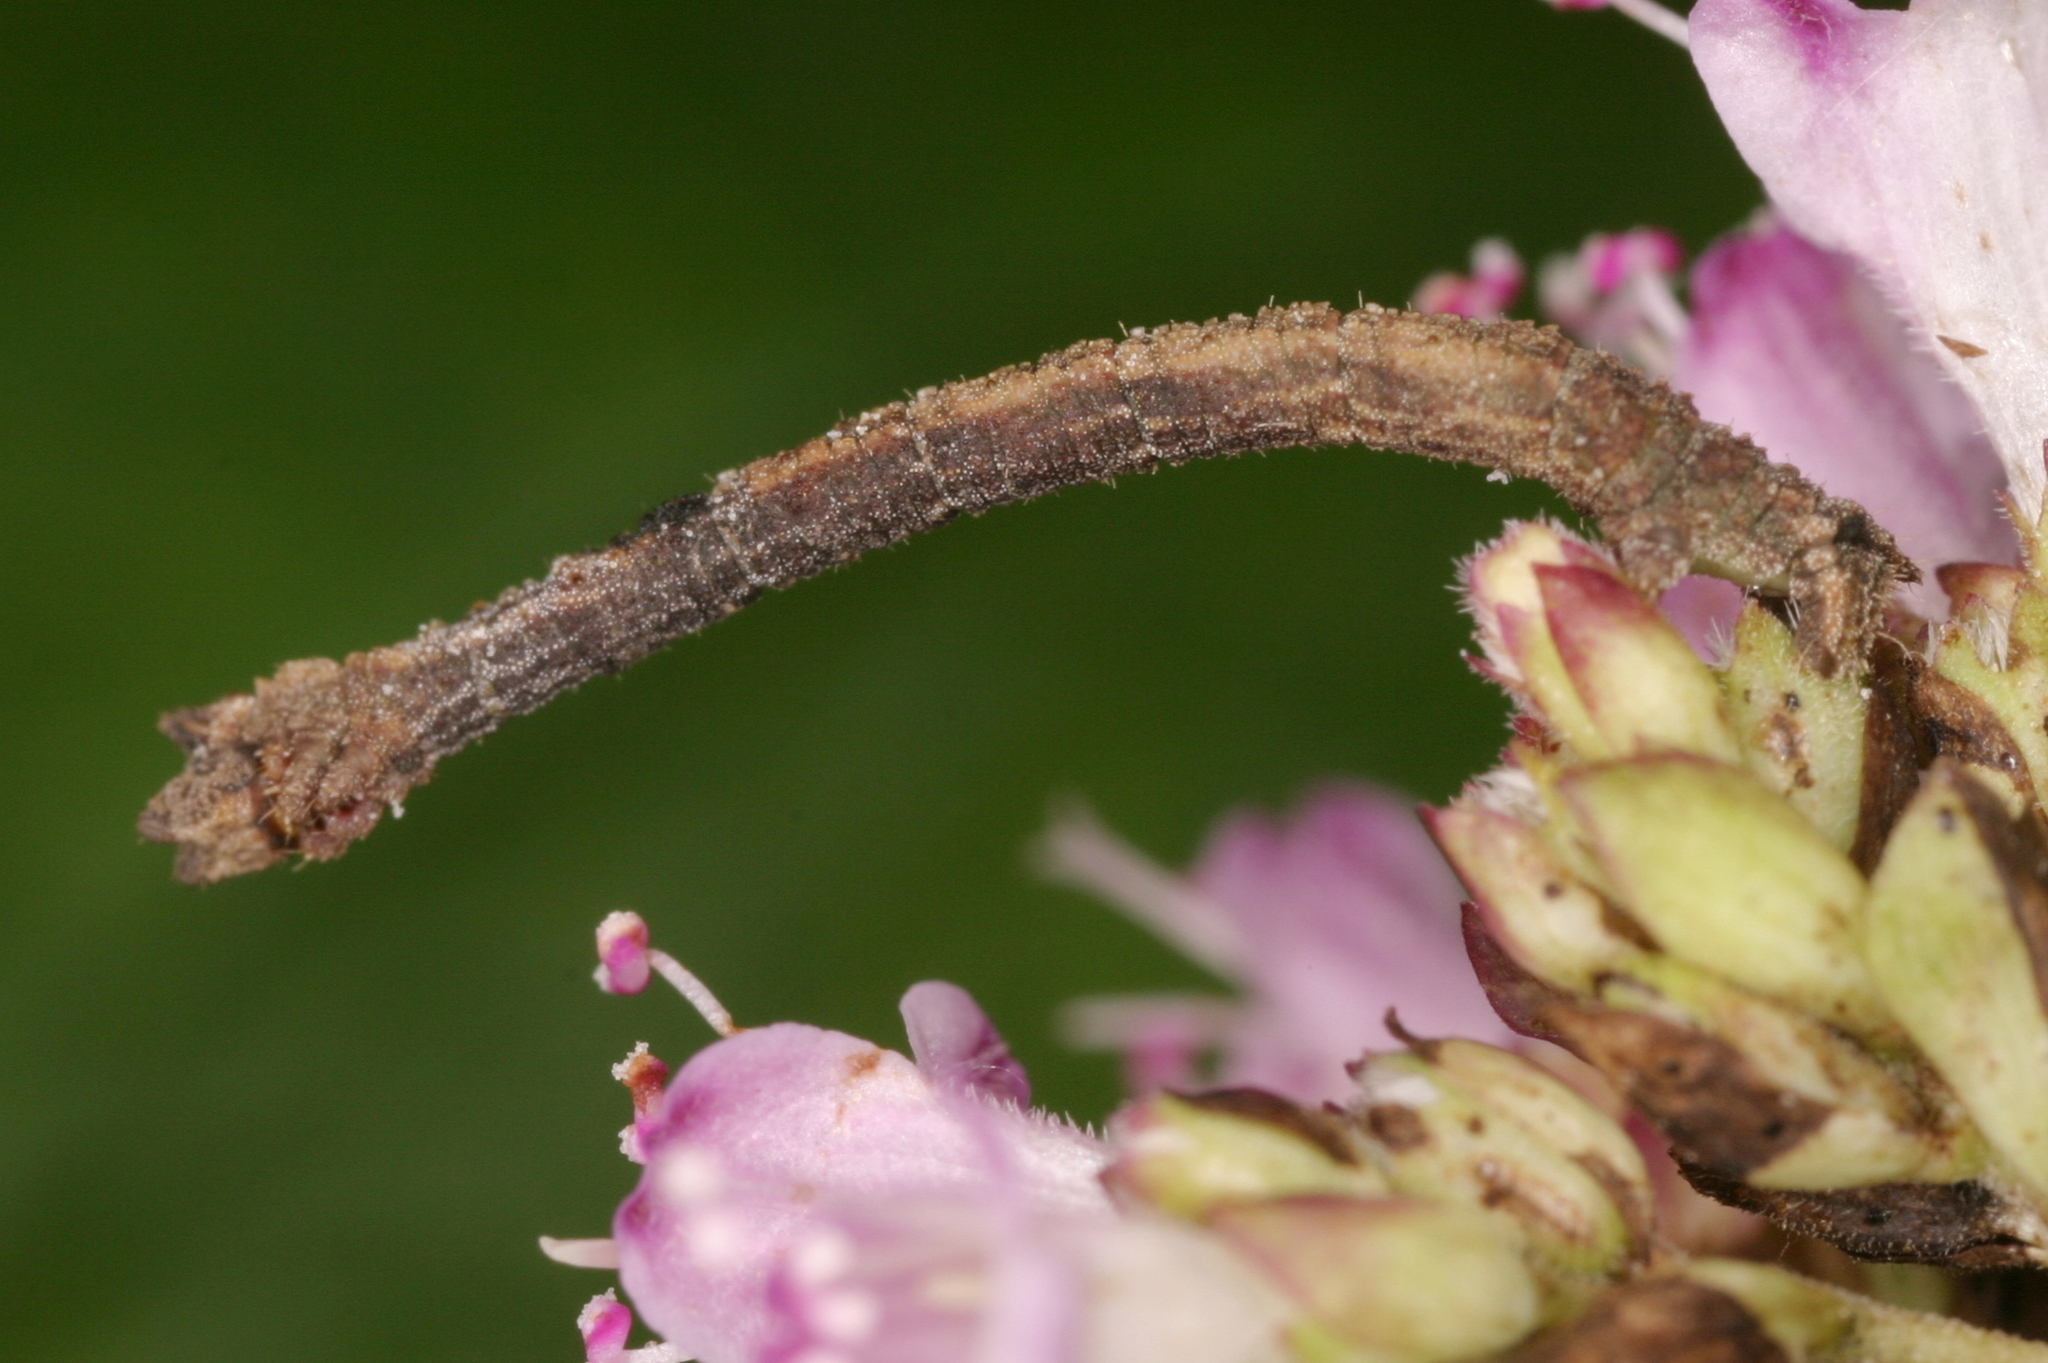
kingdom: Animalia
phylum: Arthropoda
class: Insecta
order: Lepidoptera
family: Geometridae
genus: Hemithea
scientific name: Hemithea aestivaria
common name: Common emerald
